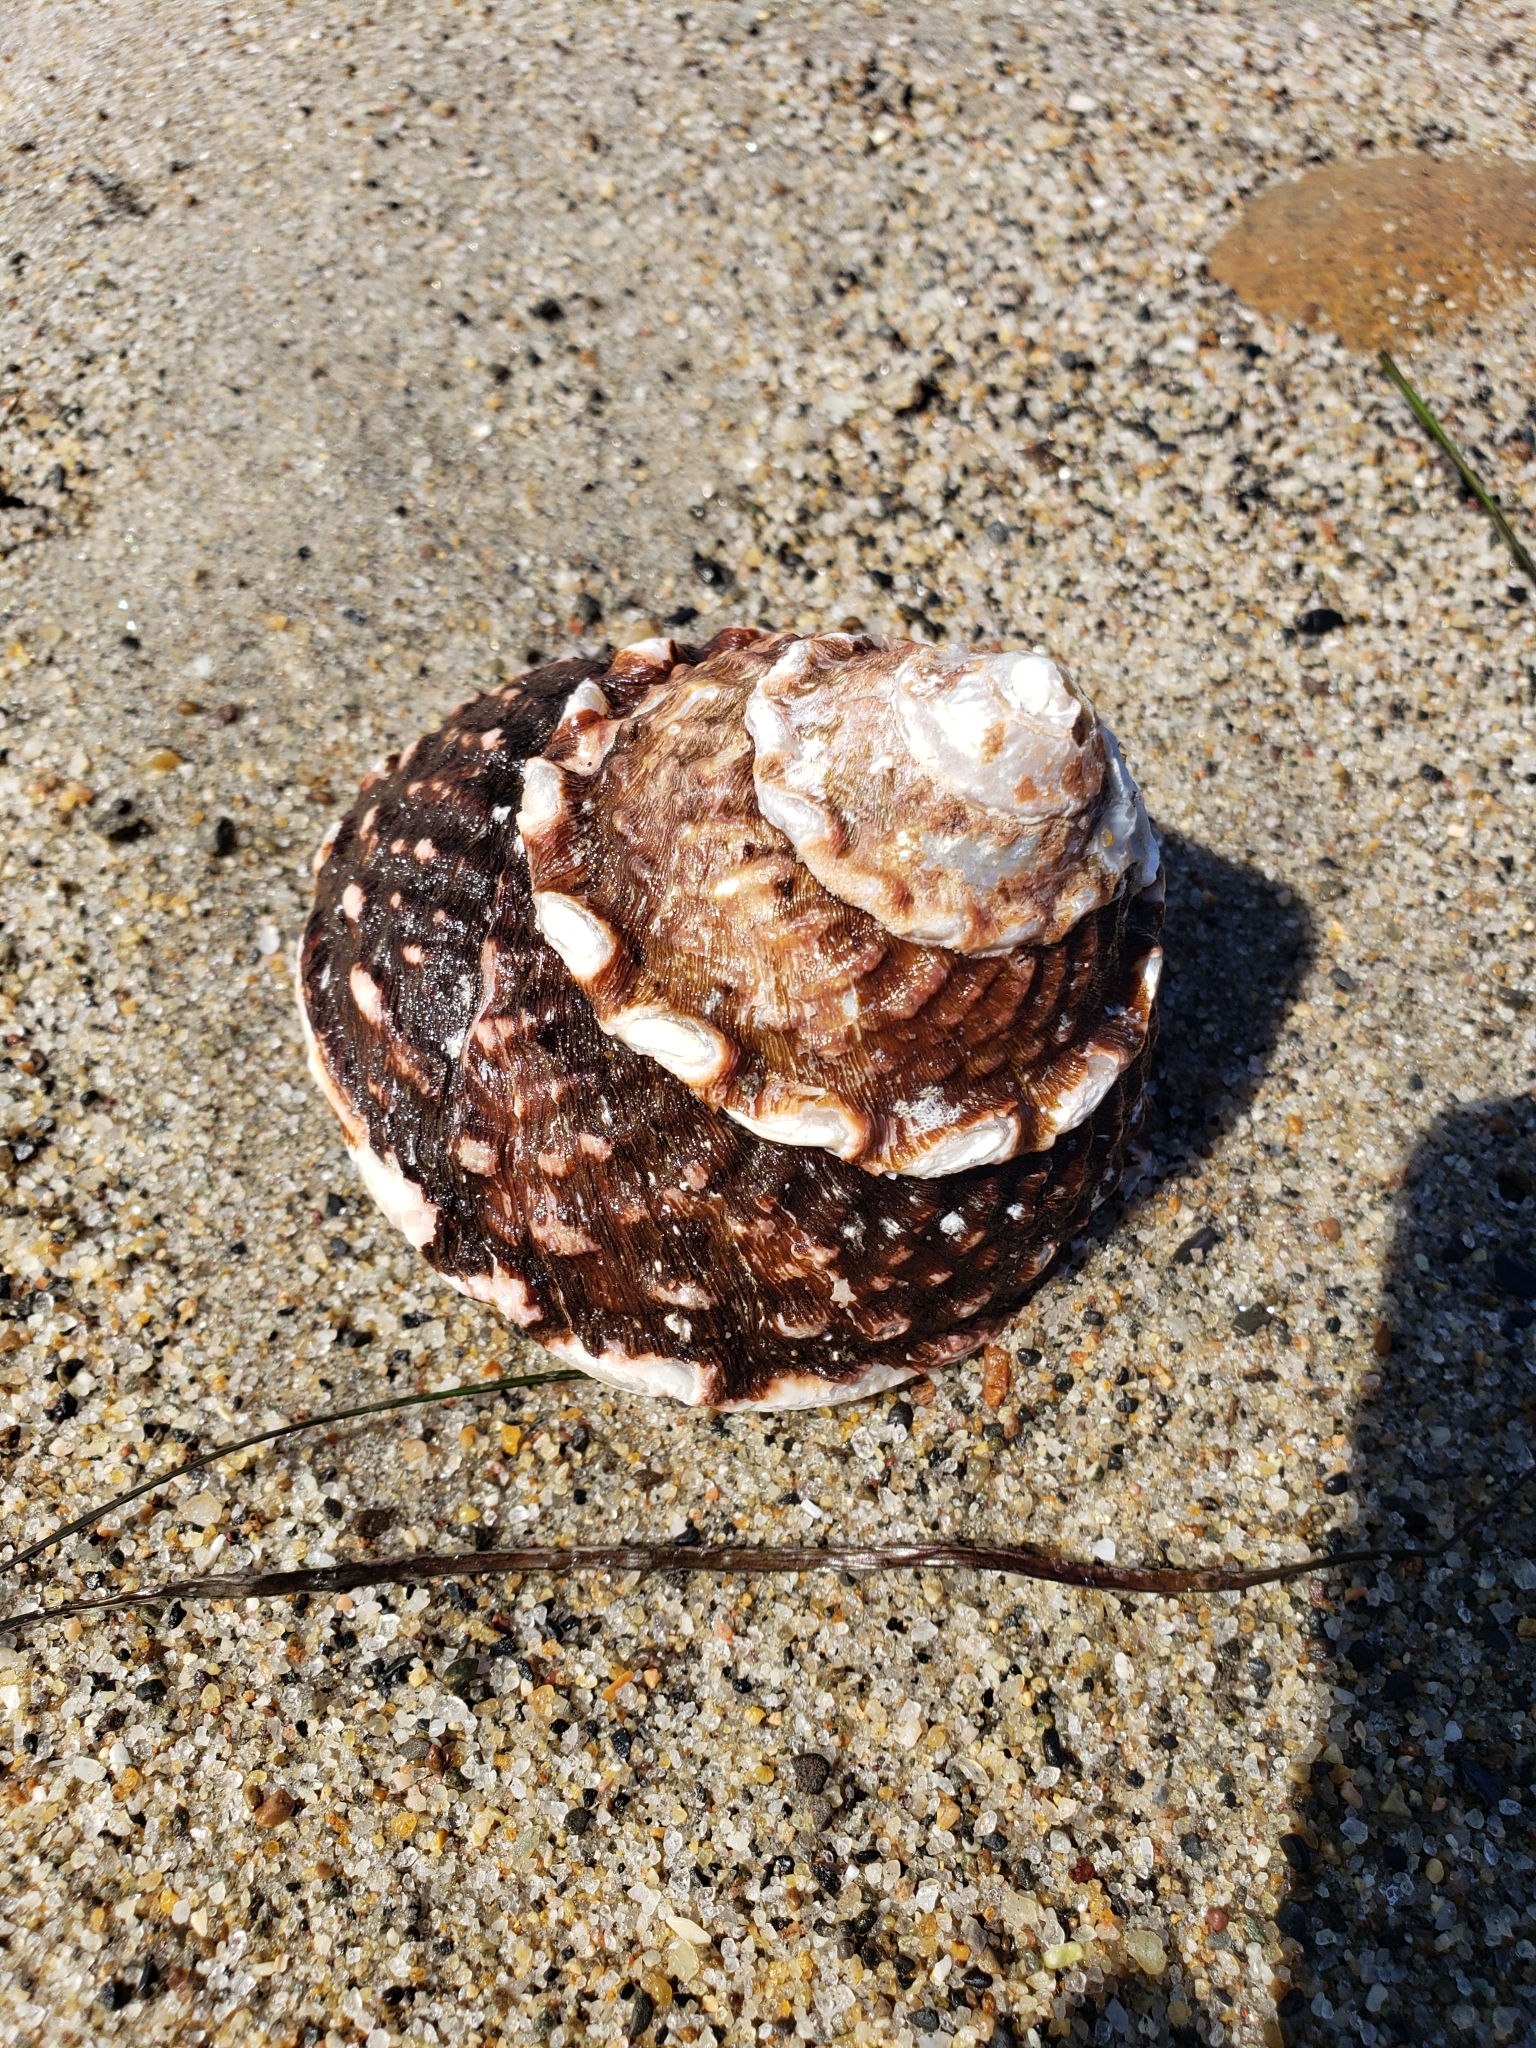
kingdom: Animalia
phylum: Mollusca
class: Gastropoda
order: Trochida
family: Turbinidae
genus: Megastraea
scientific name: Megastraea undosa
